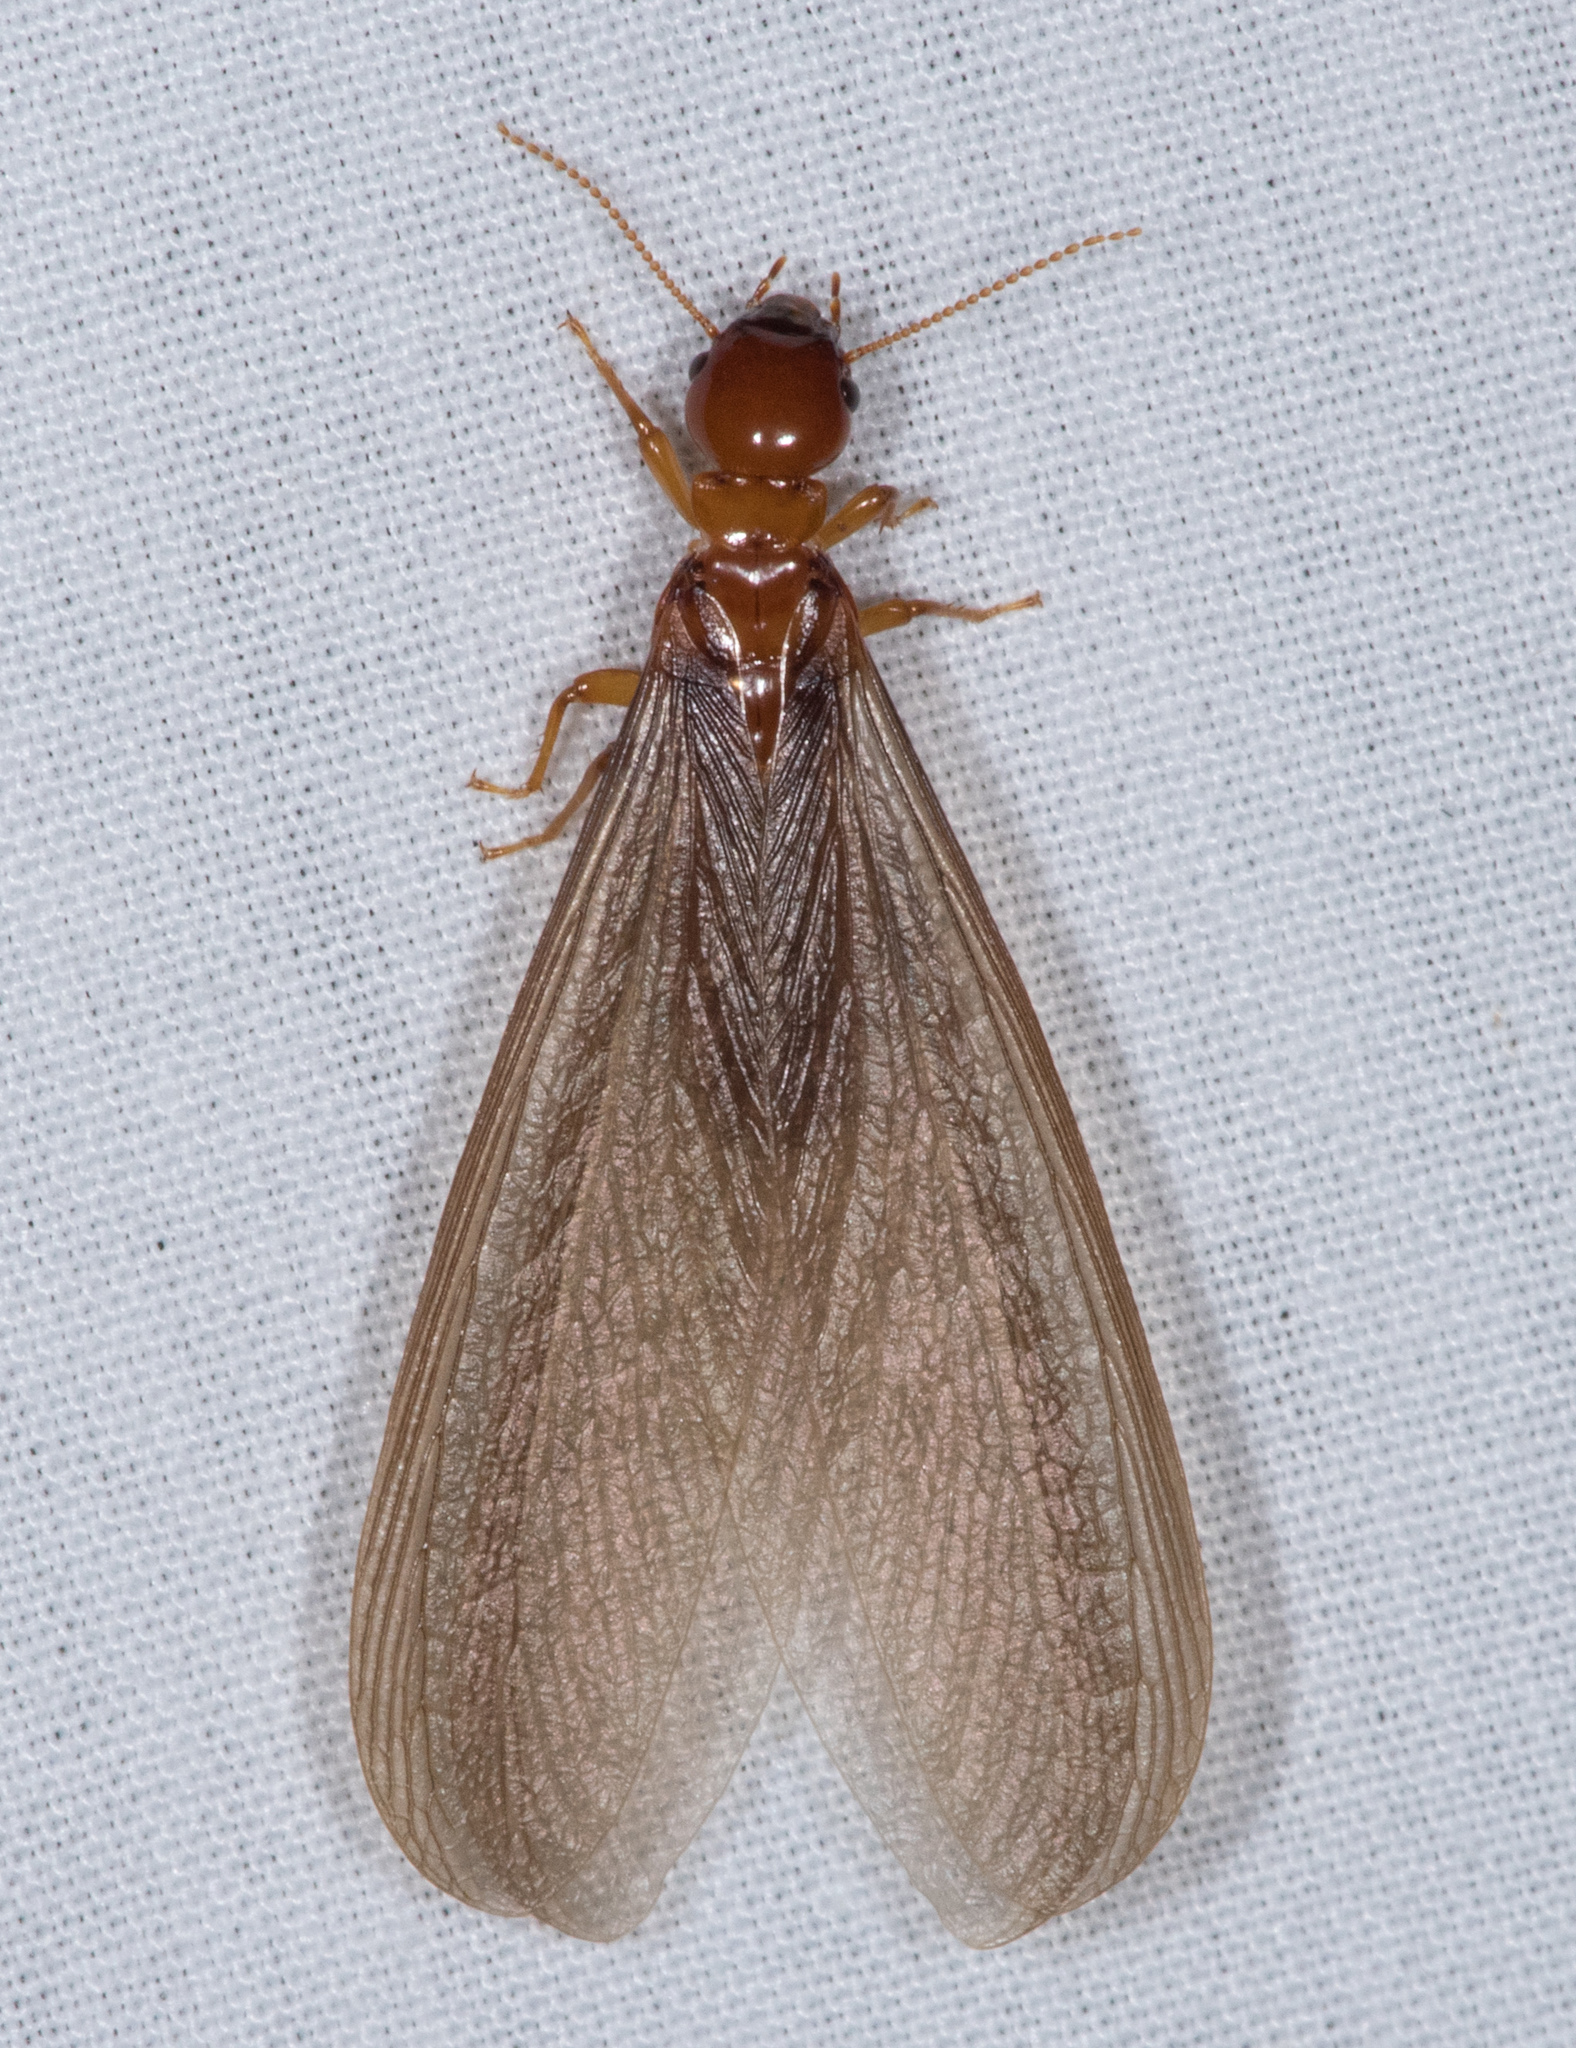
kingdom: Animalia
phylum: Arthropoda
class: Insecta
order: Blattodea
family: Archotermopsidae
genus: Zootermopsis
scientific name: Zootermopsis angusticollis
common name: Rottenwood termite
